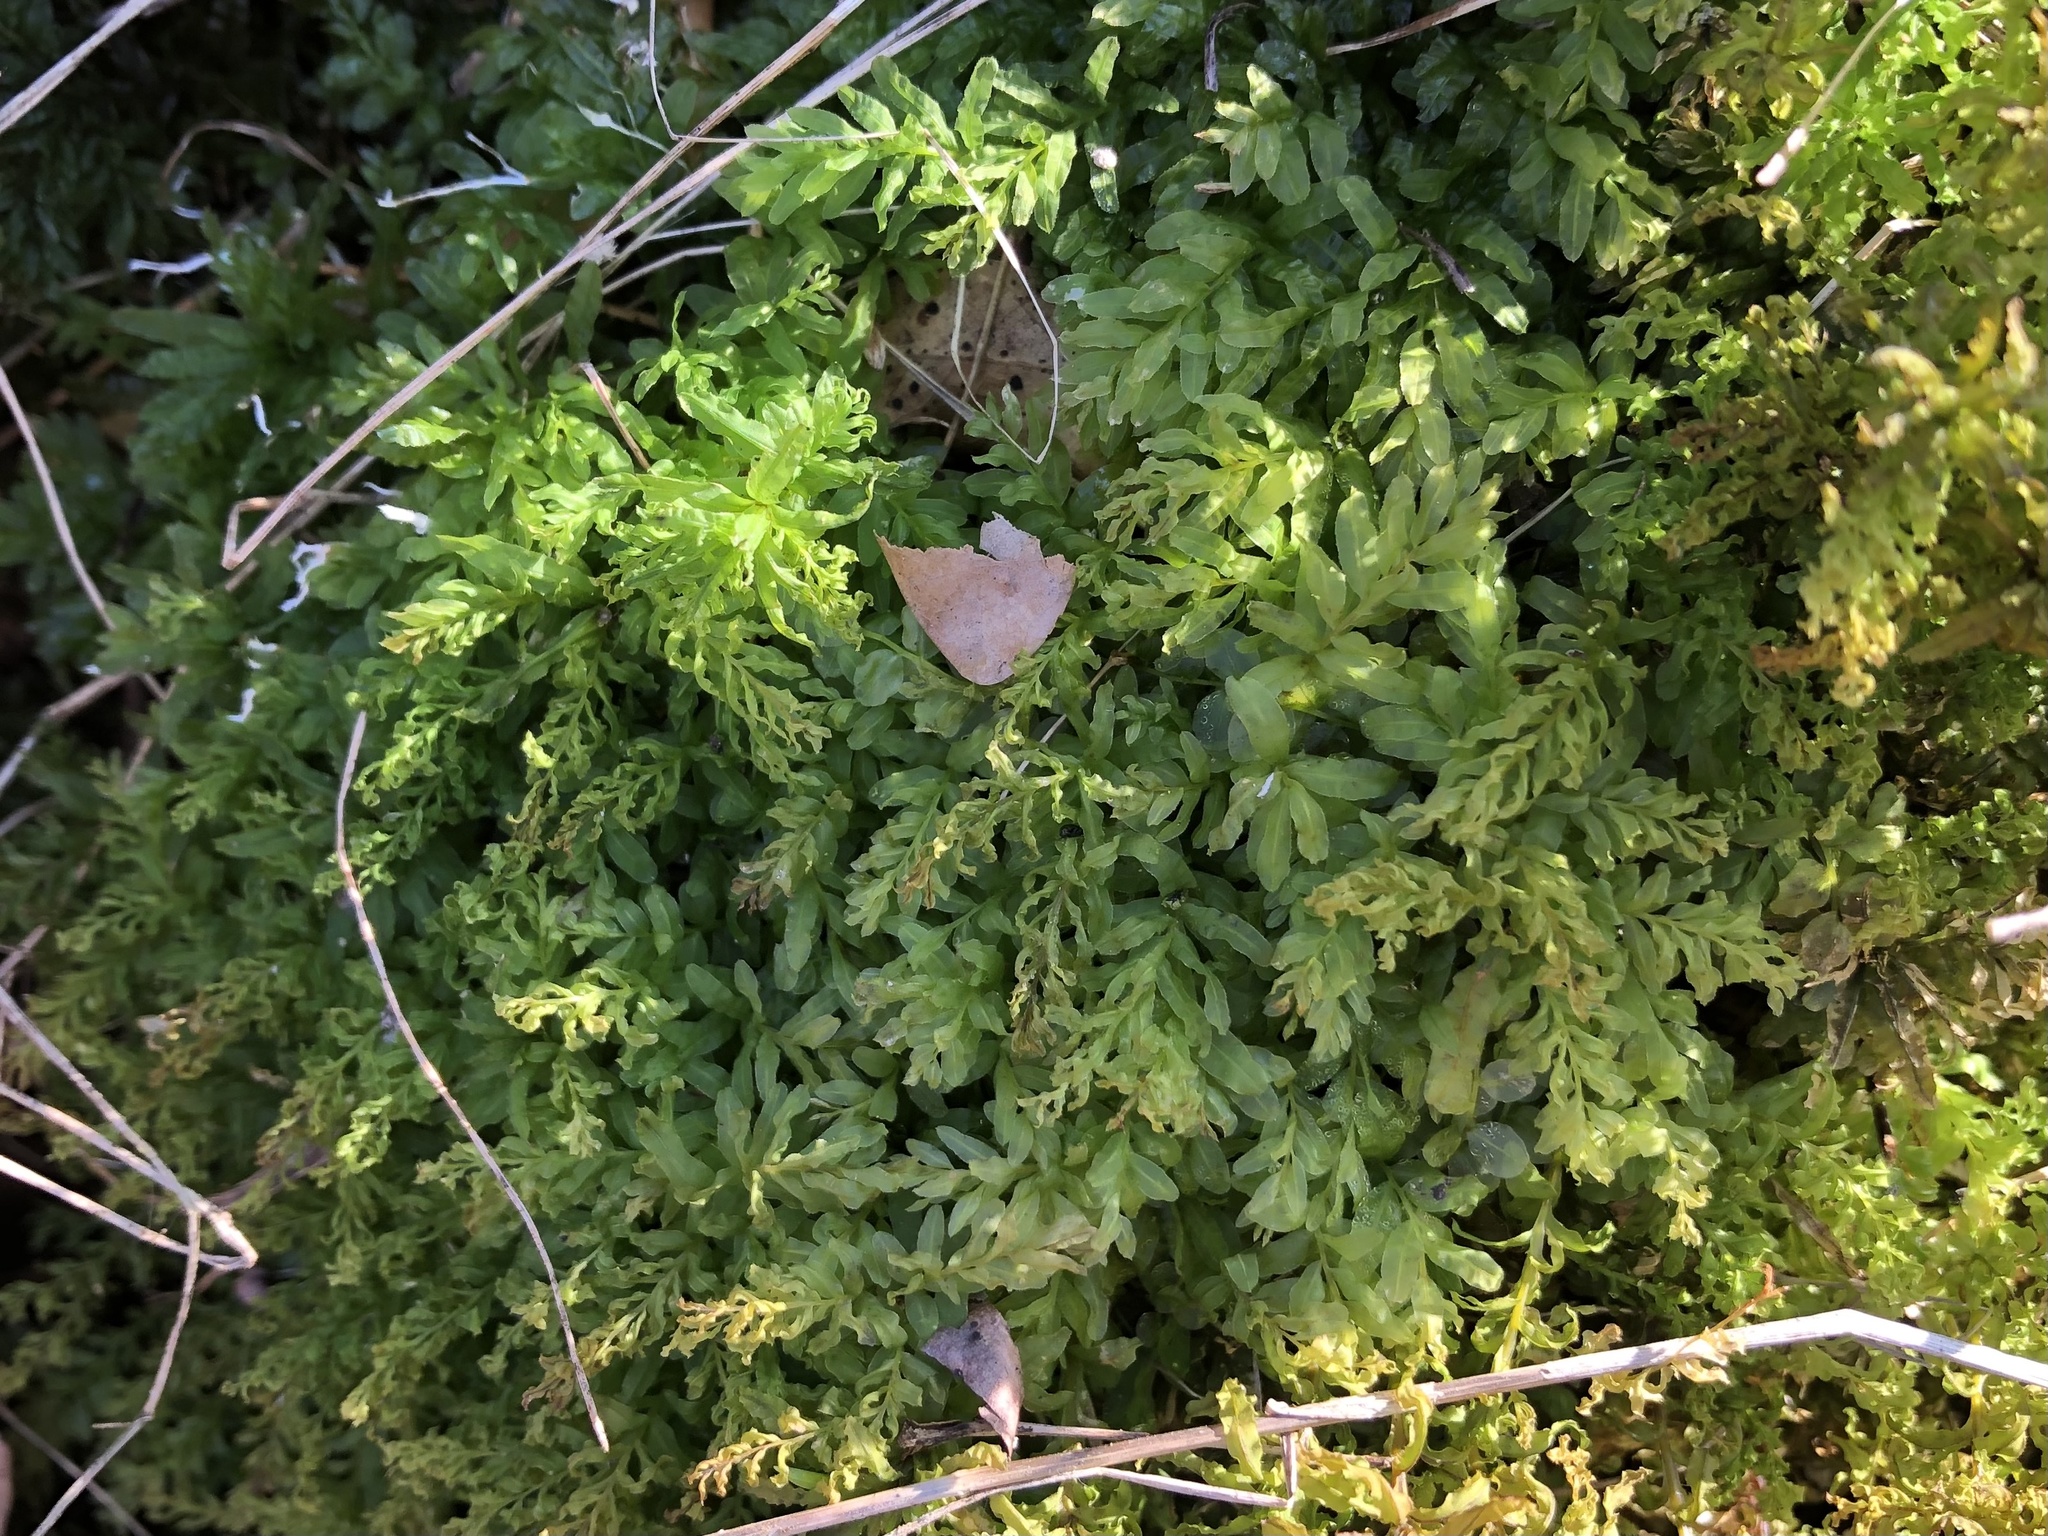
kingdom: Plantae
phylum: Bryophyta
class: Bryopsida
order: Bryales
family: Mniaceae
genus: Plagiomnium
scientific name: Plagiomnium undulatum
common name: Hart's-tongue thyme-moss
